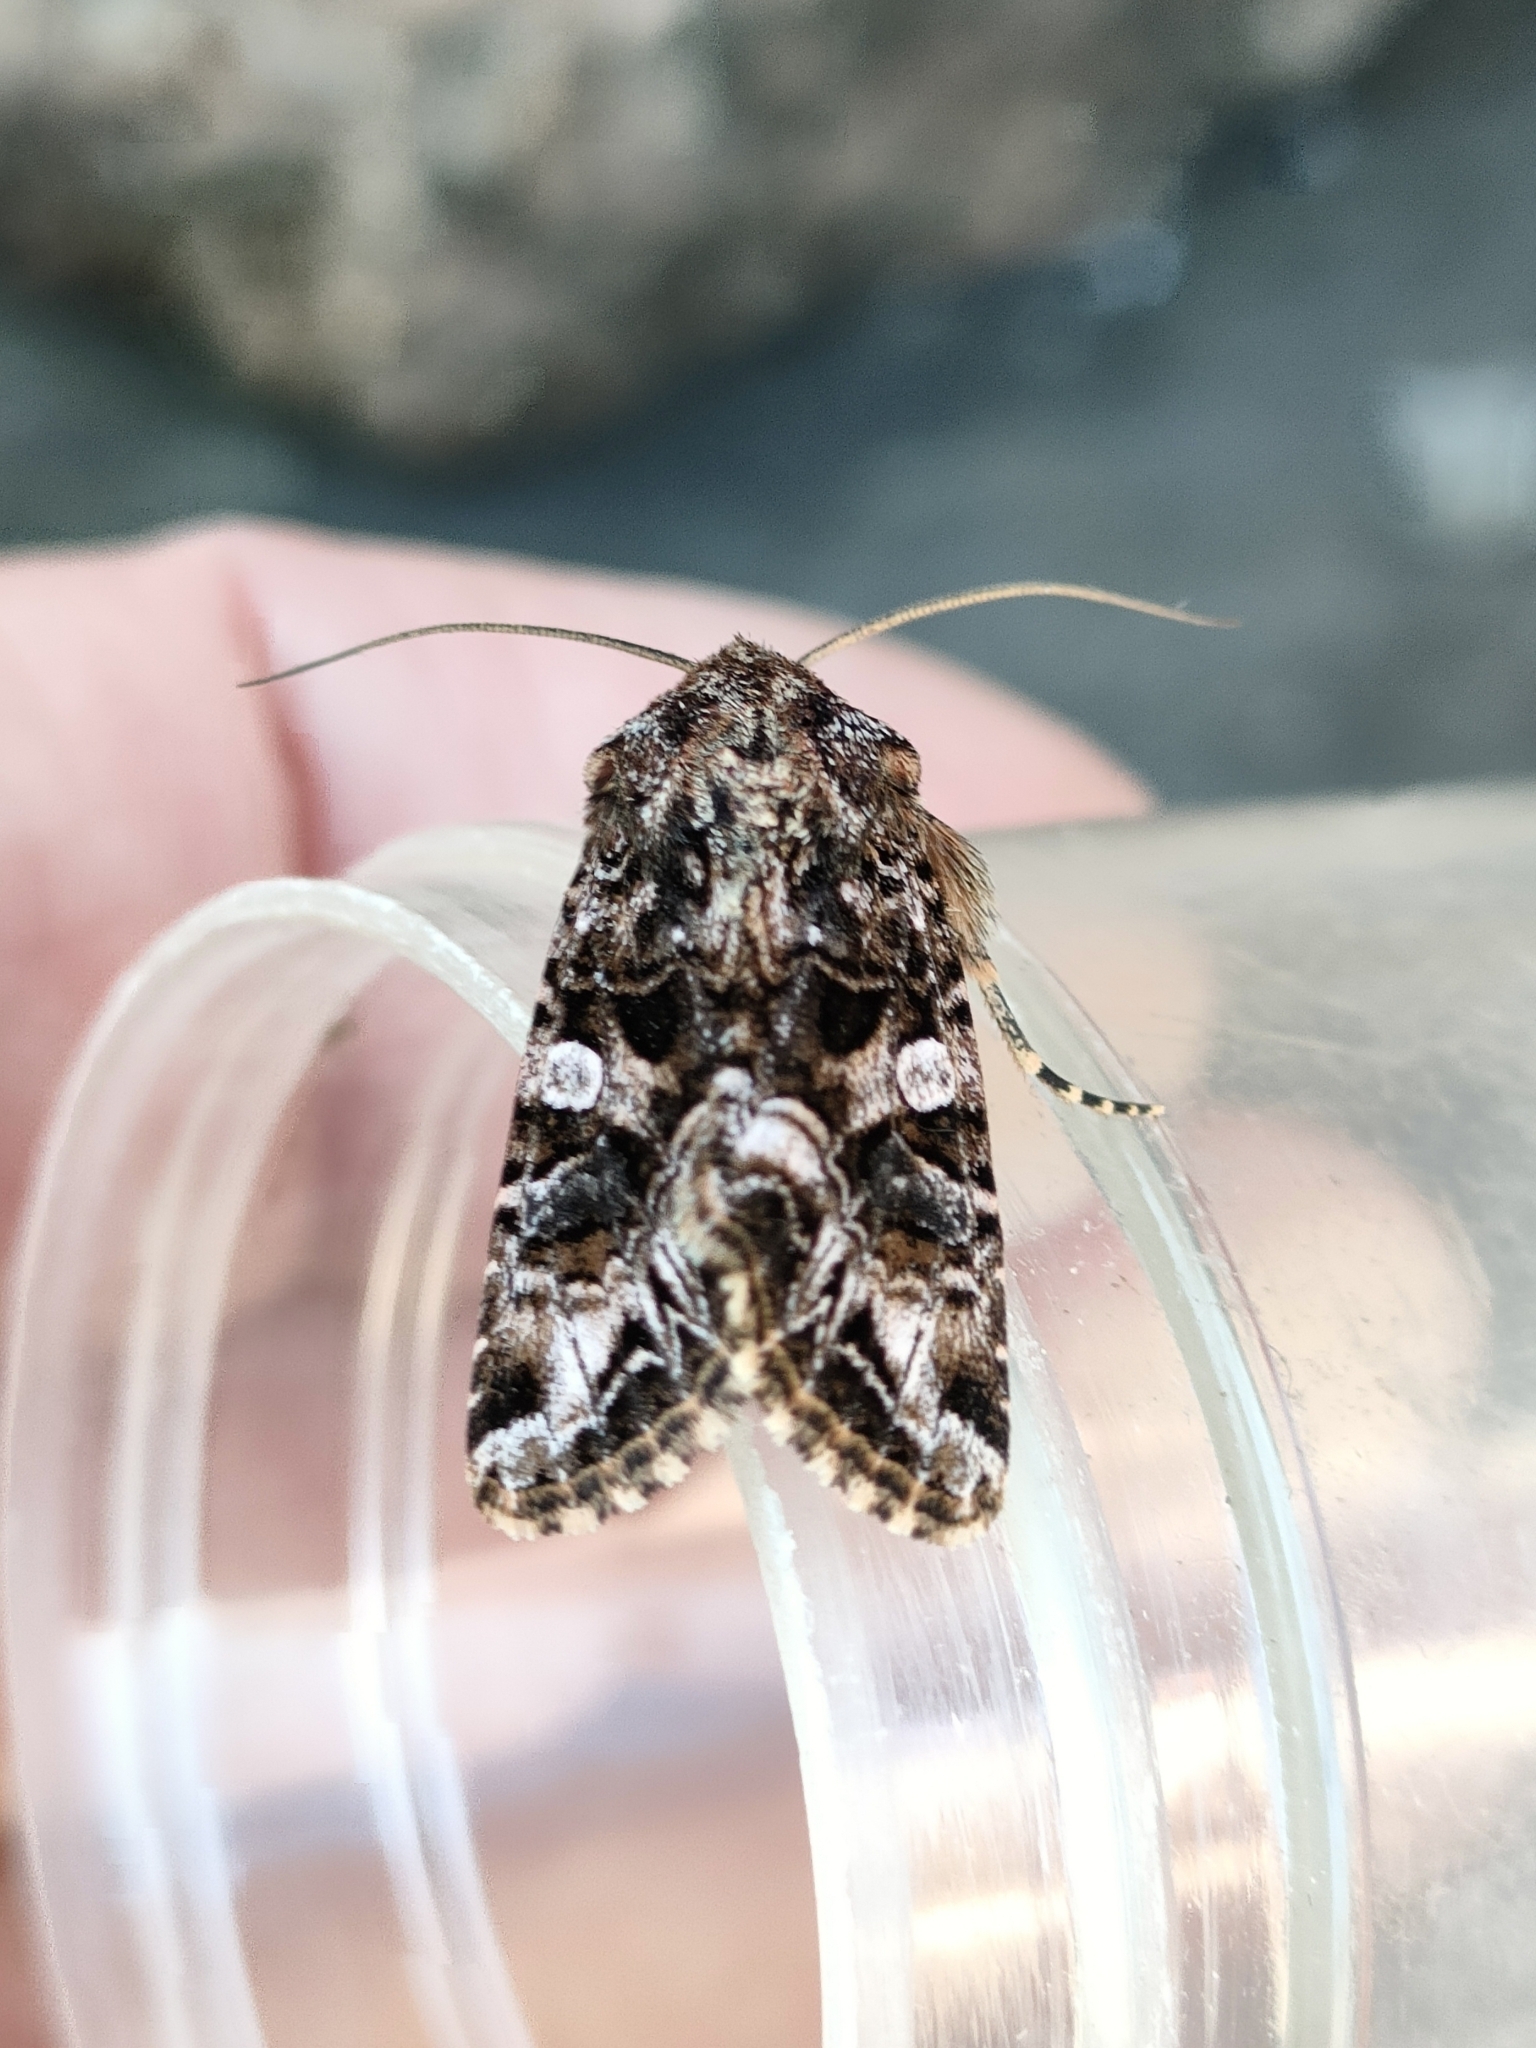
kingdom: Animalia
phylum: Arthropoda
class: Insecta
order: Lepidoptera
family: Noctuidae
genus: Anarta
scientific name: Anarta odontites
